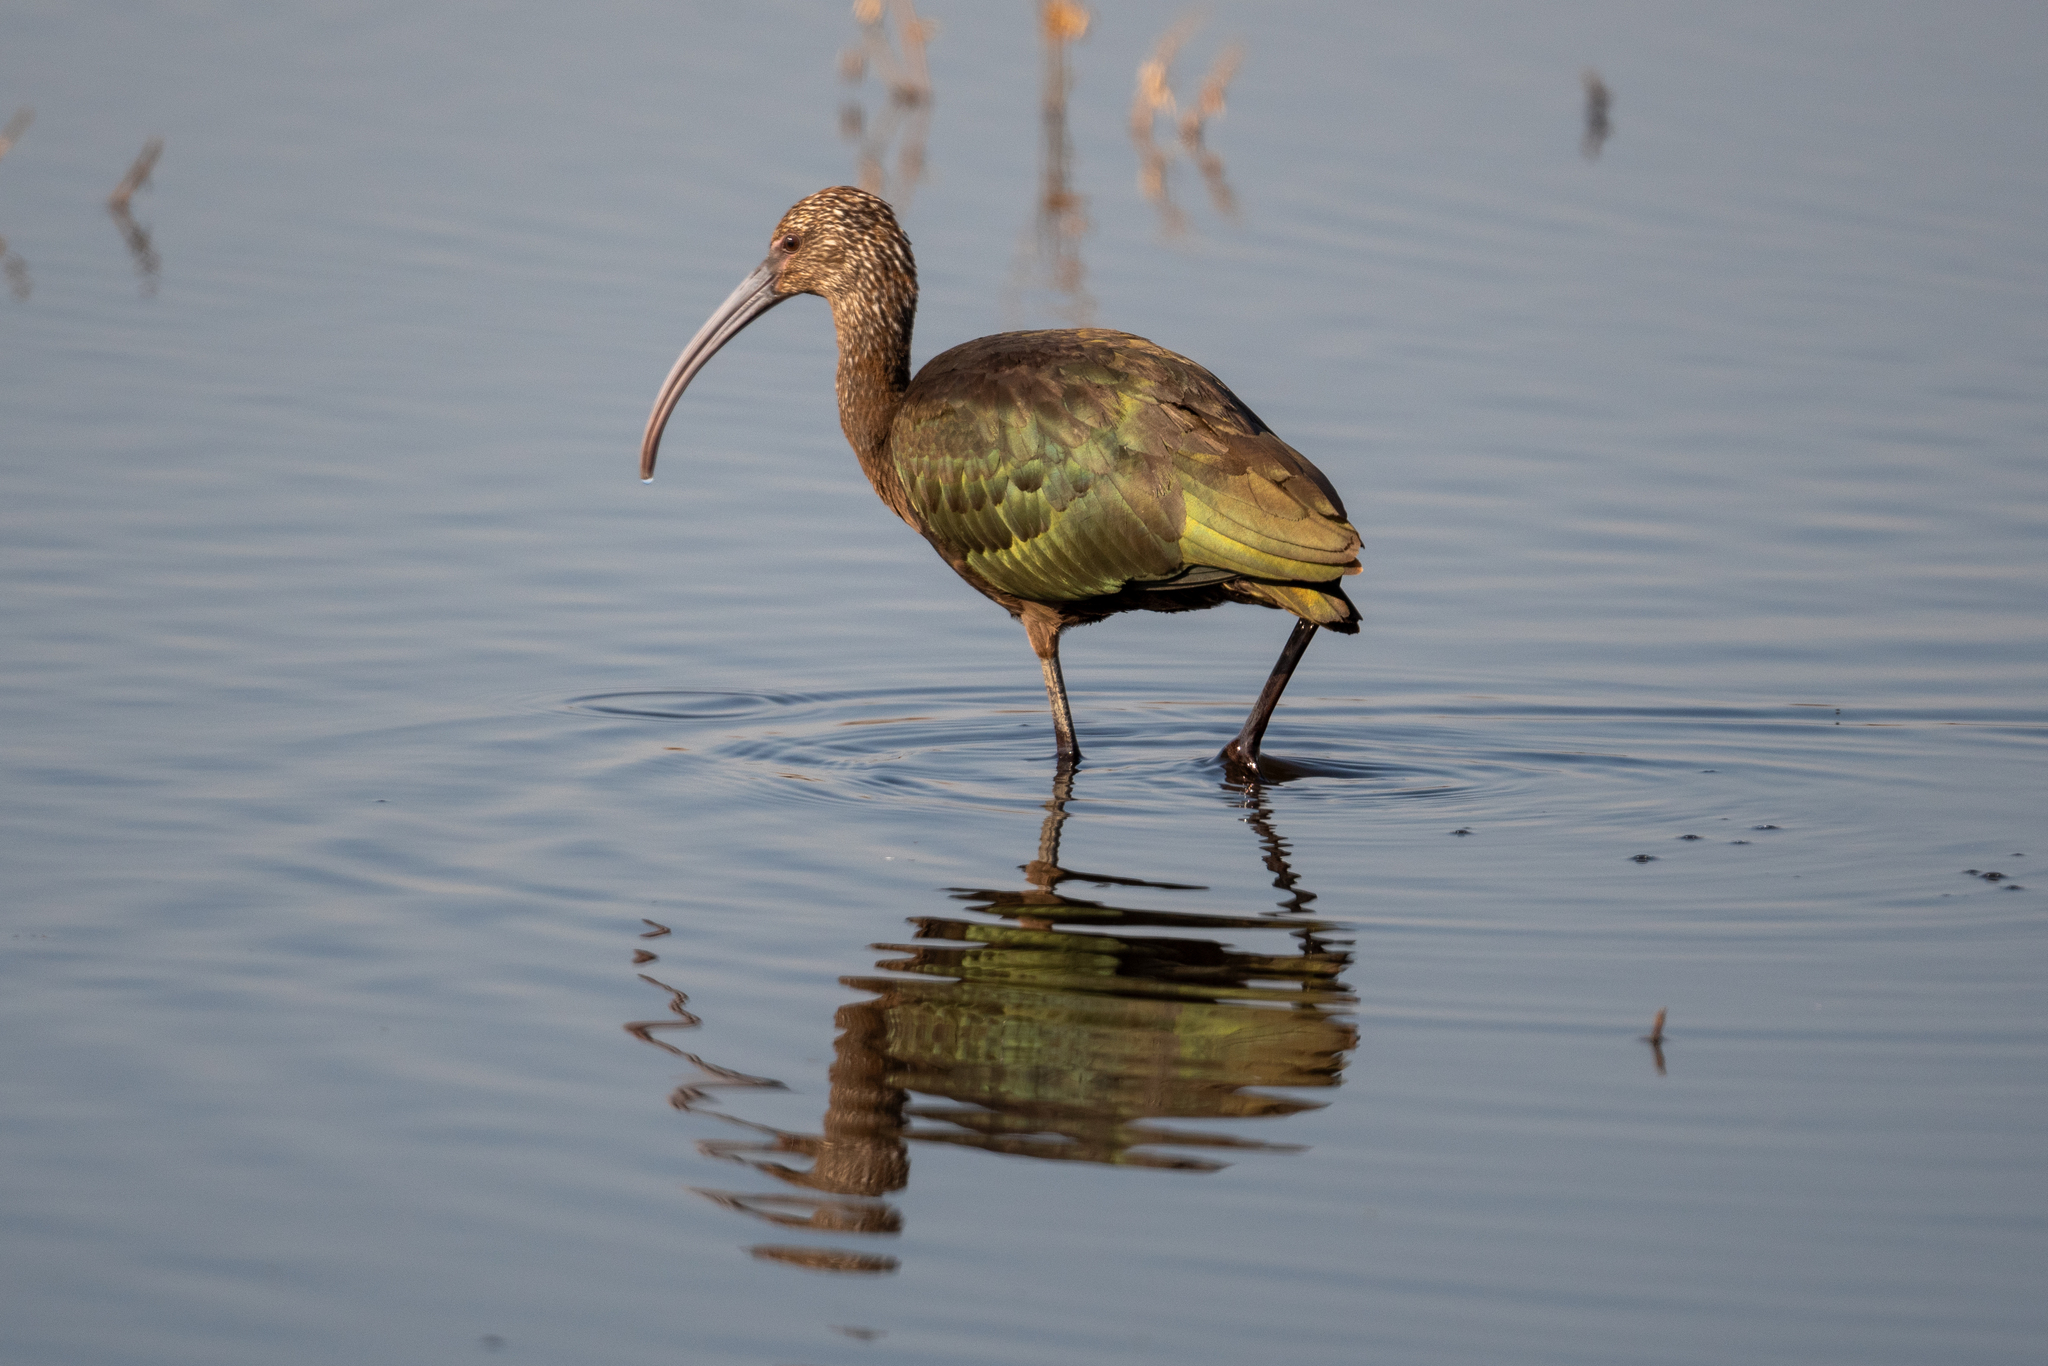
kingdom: Animalia
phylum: Chordata
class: Aves
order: Pelecaniformes
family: Threskiornithidae
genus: Plegadis
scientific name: Plegadis chihi
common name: White-faced ibis
